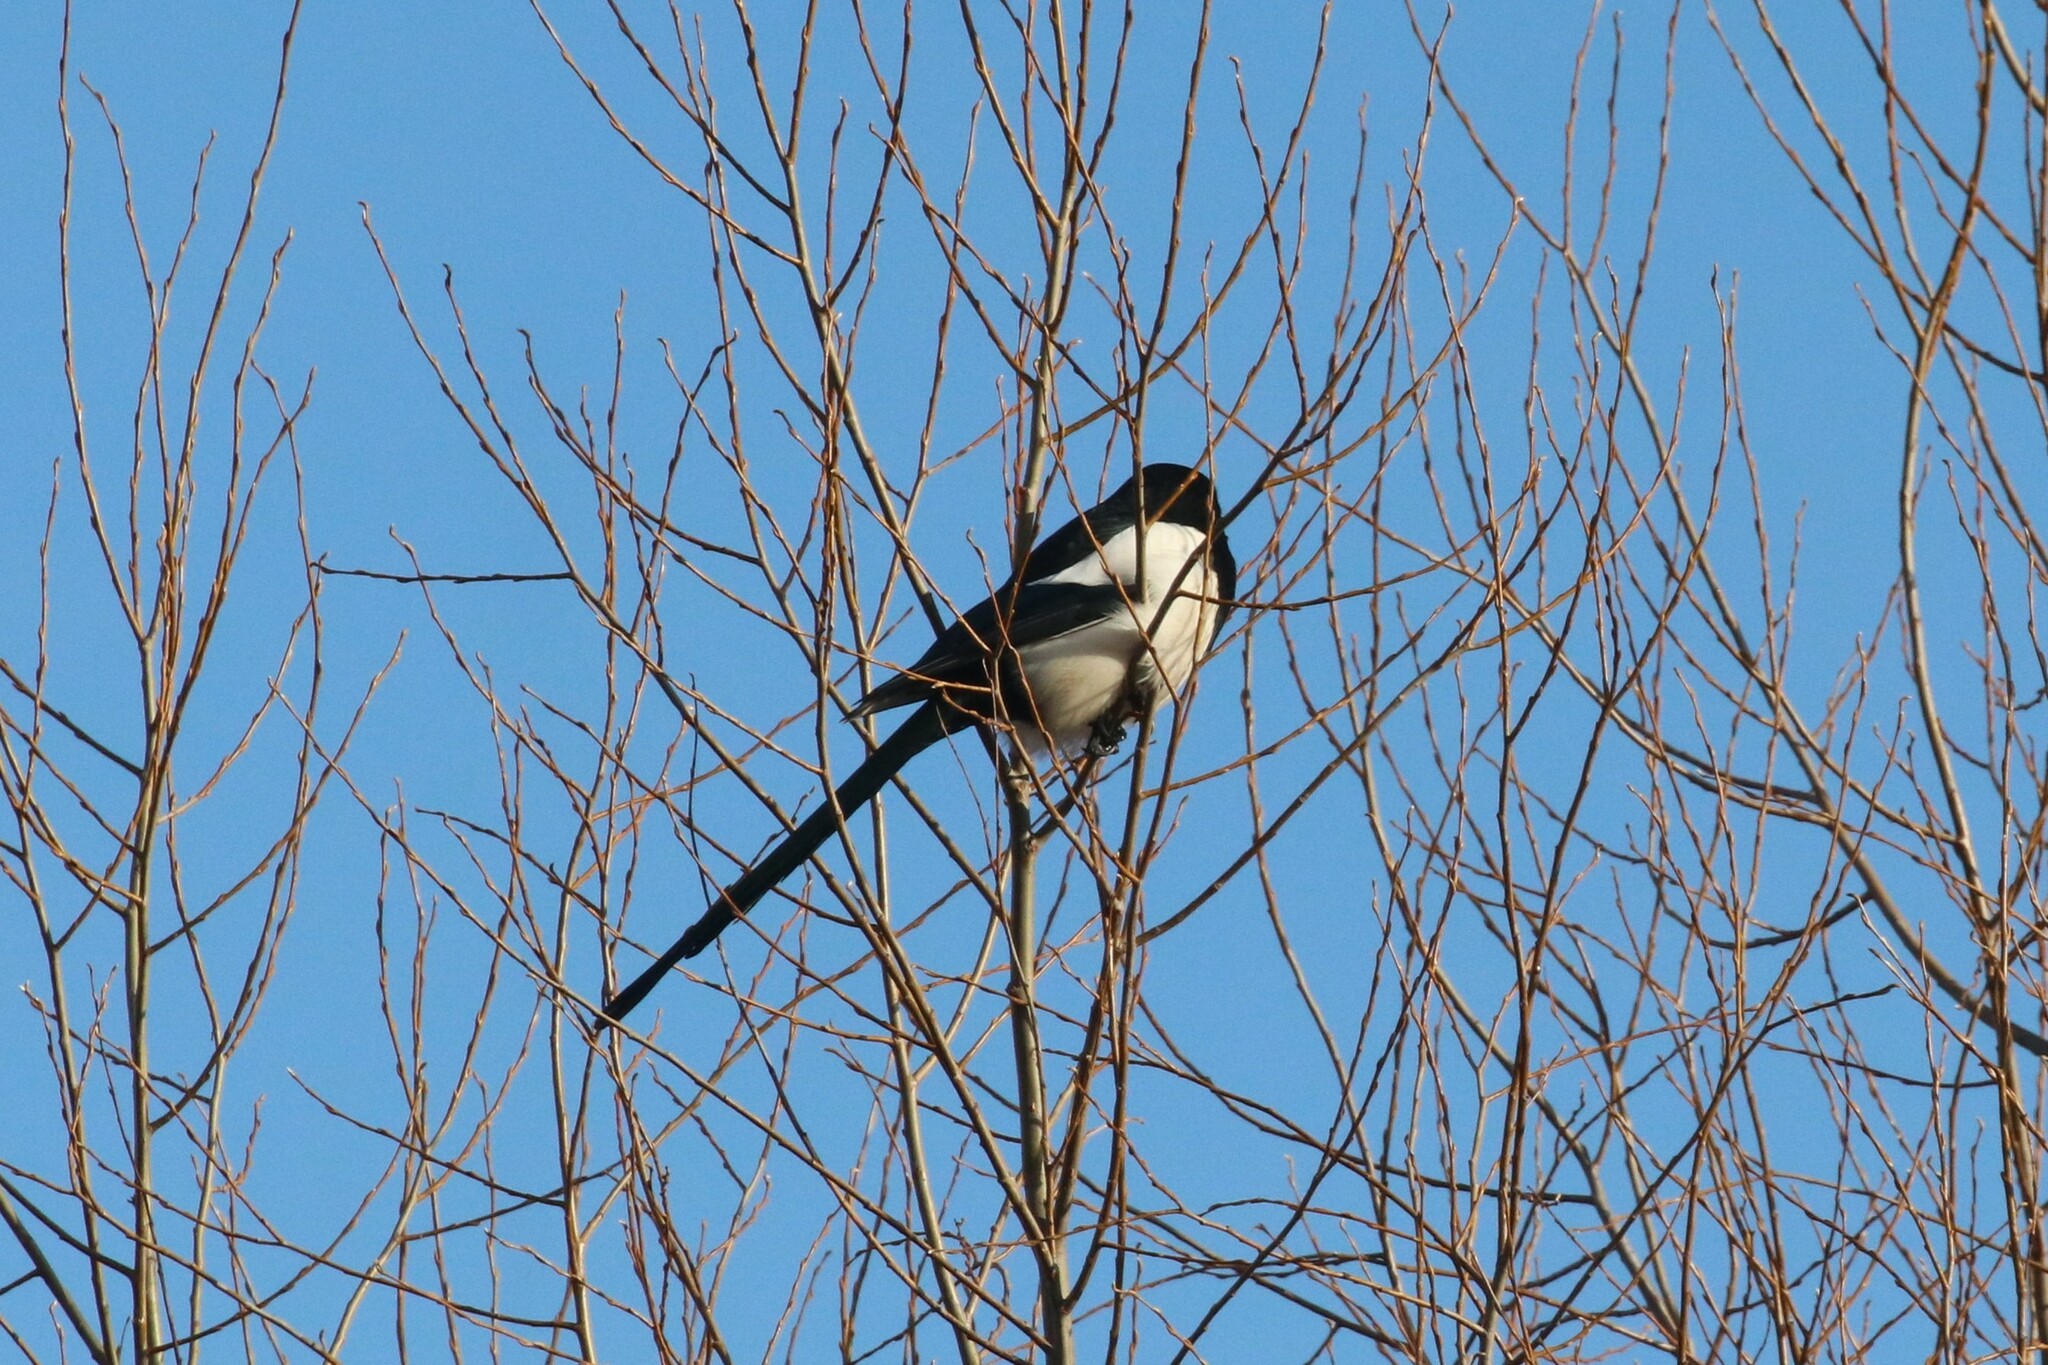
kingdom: Animalia
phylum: Chordata
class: Aves
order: Passeriformes
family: Corvidae
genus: Pica
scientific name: Pica pica
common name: Eurasian magpie
